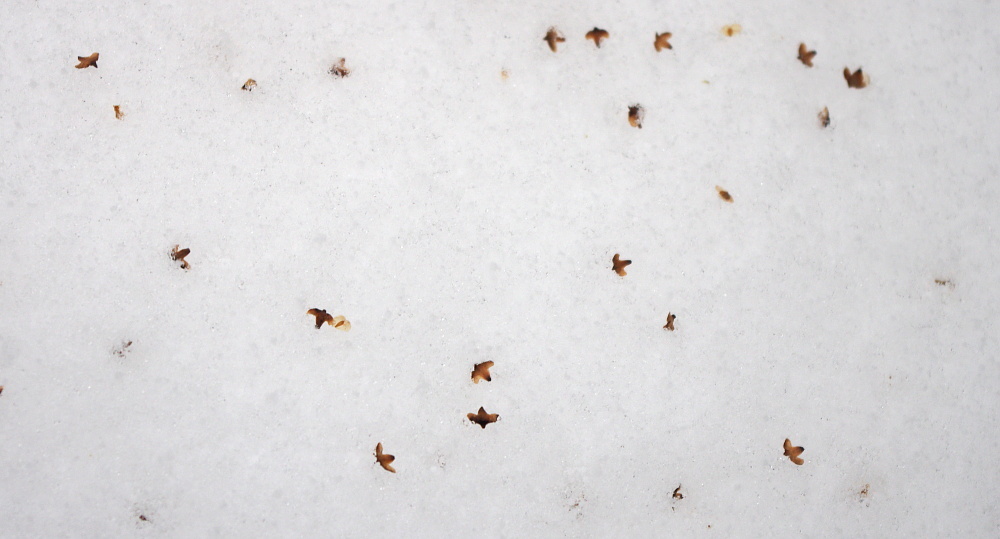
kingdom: Plantae
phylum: Tracheophyta
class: Magnoliopsida
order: Fagales
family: Betulaceae
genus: Betula
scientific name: Betula pendula
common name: Silver birch
